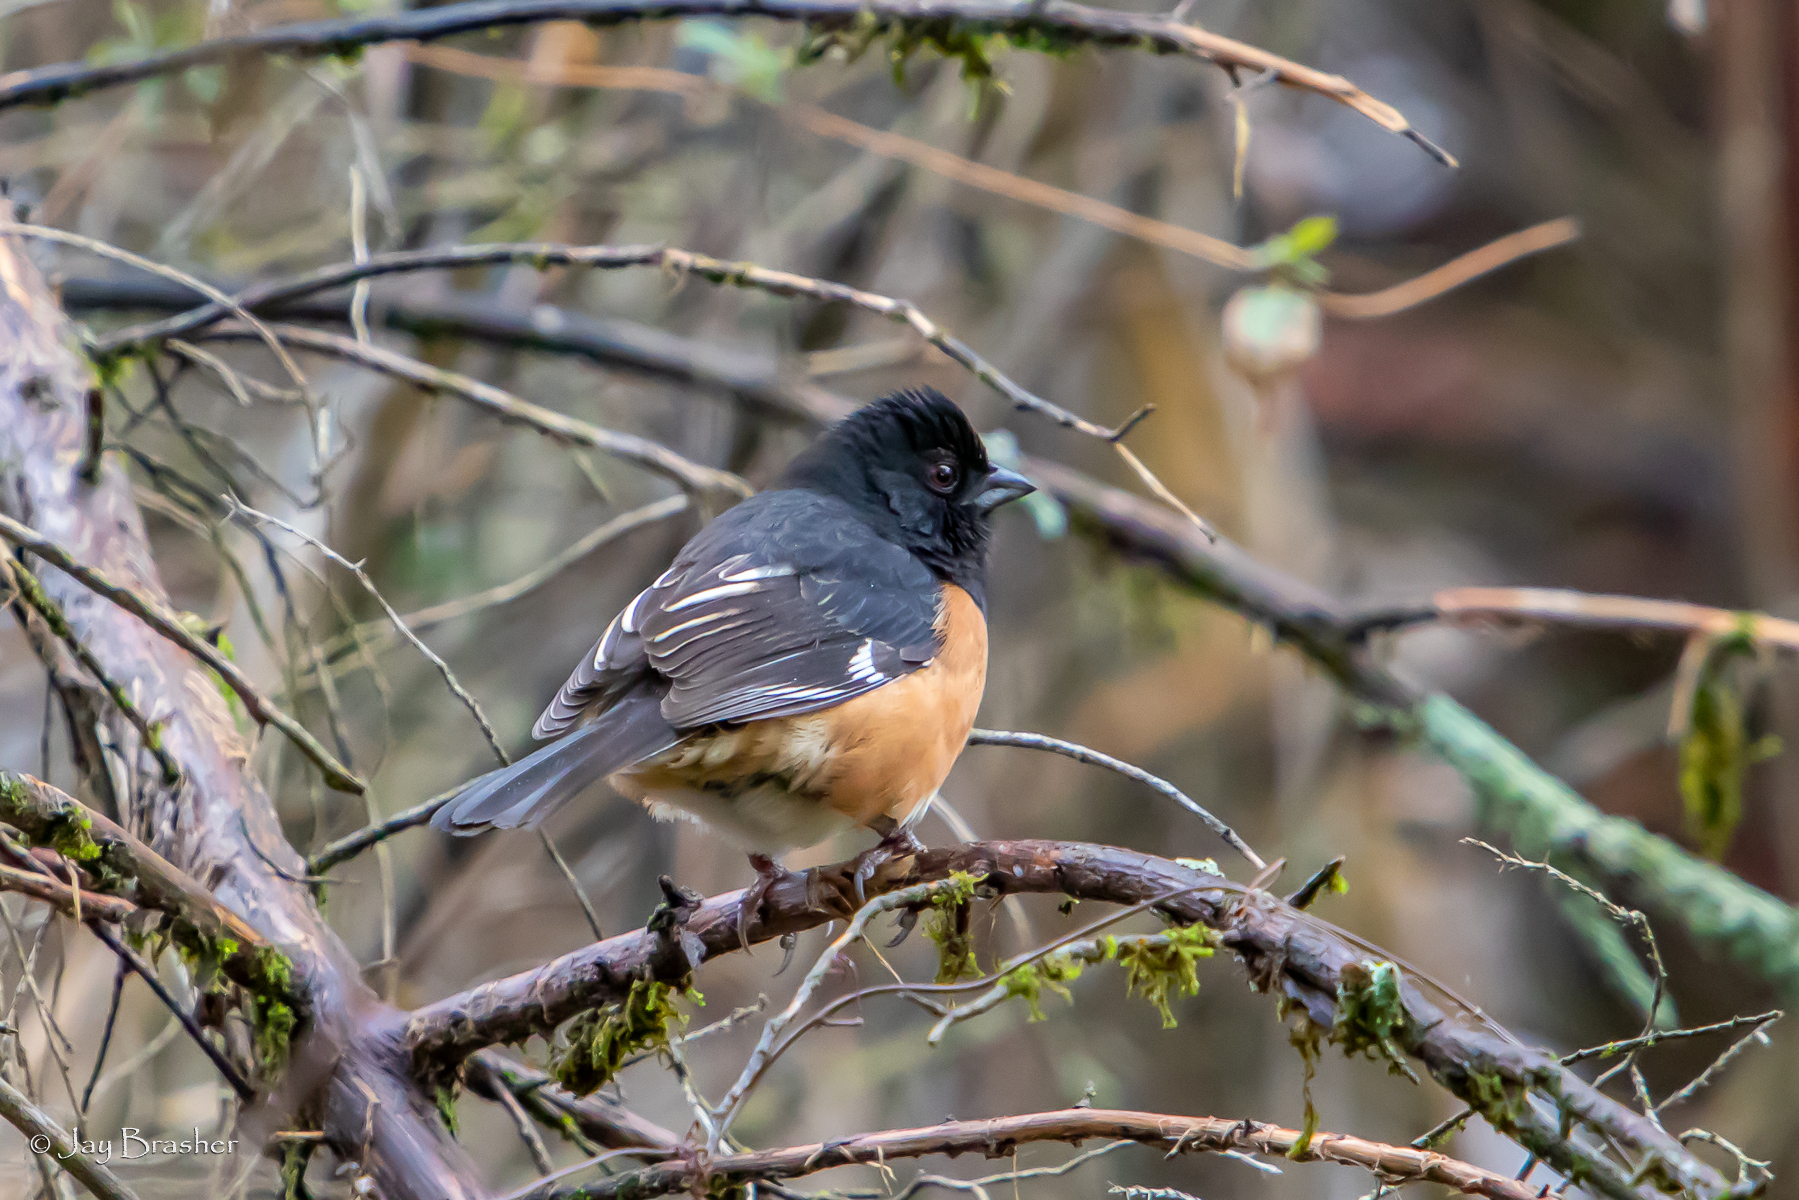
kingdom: Animalia
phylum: Chordata
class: Aves
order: Passeriformes
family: Passerellidae
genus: Pipilo
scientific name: Pipilo erythrophthalmus
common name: Eastern towhee
